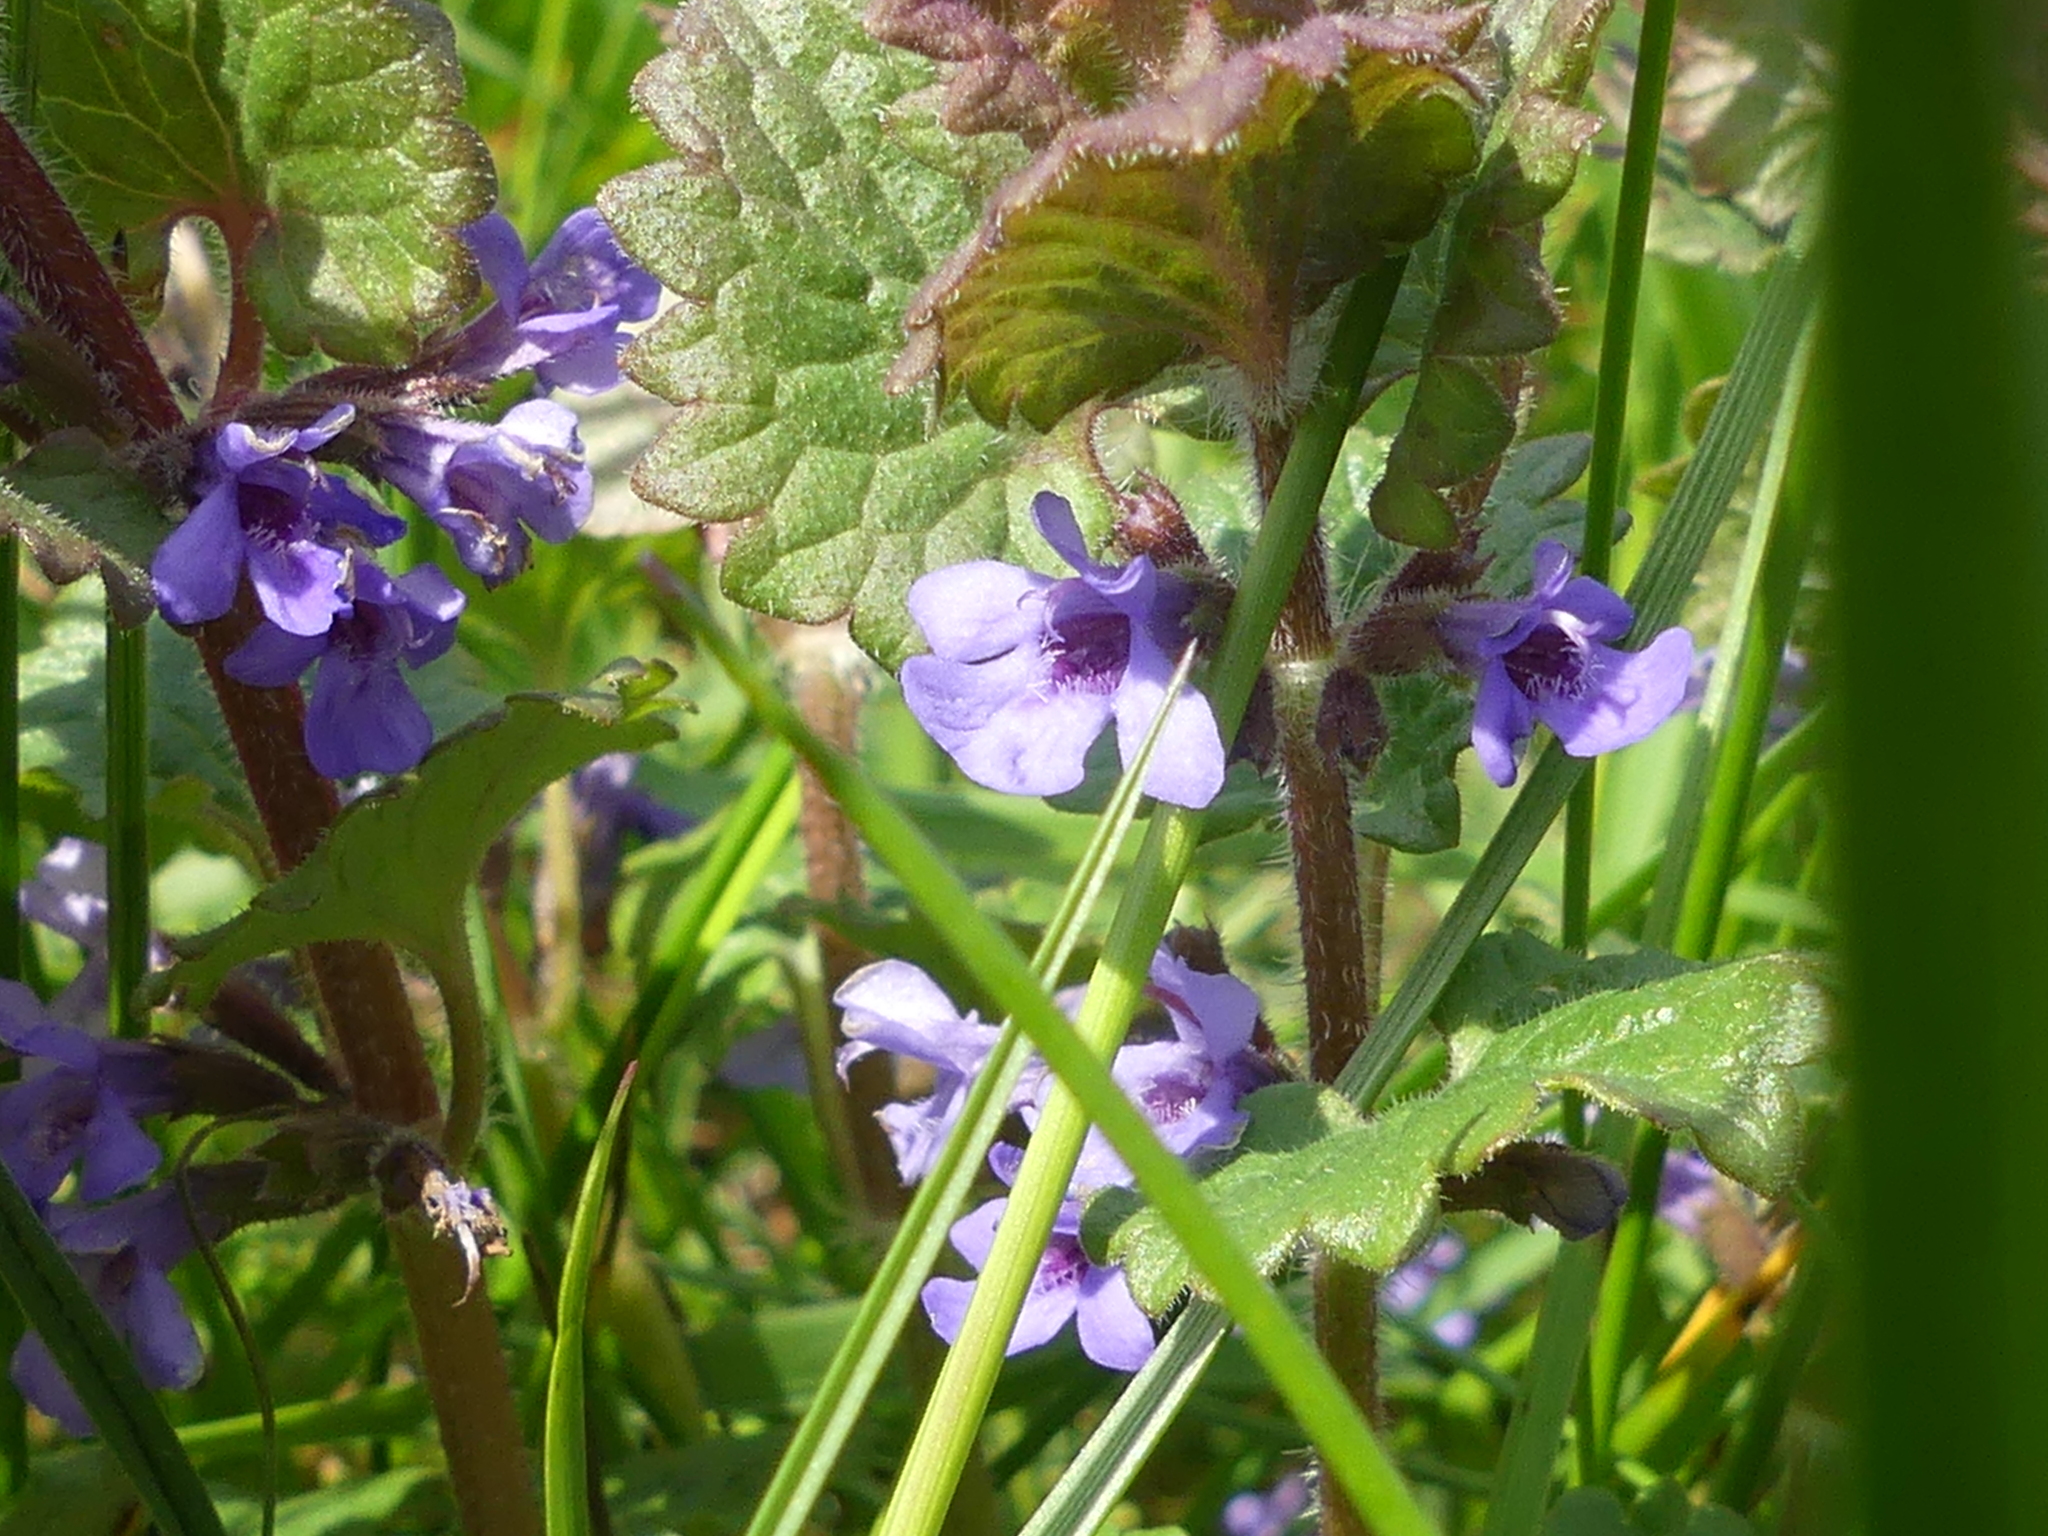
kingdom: Plantae
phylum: Tracheophyta
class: Magnoliopsida
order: Lamiales
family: Lamiaceae
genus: Glechoma
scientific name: Glechoma hederacea
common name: Ground ivy
